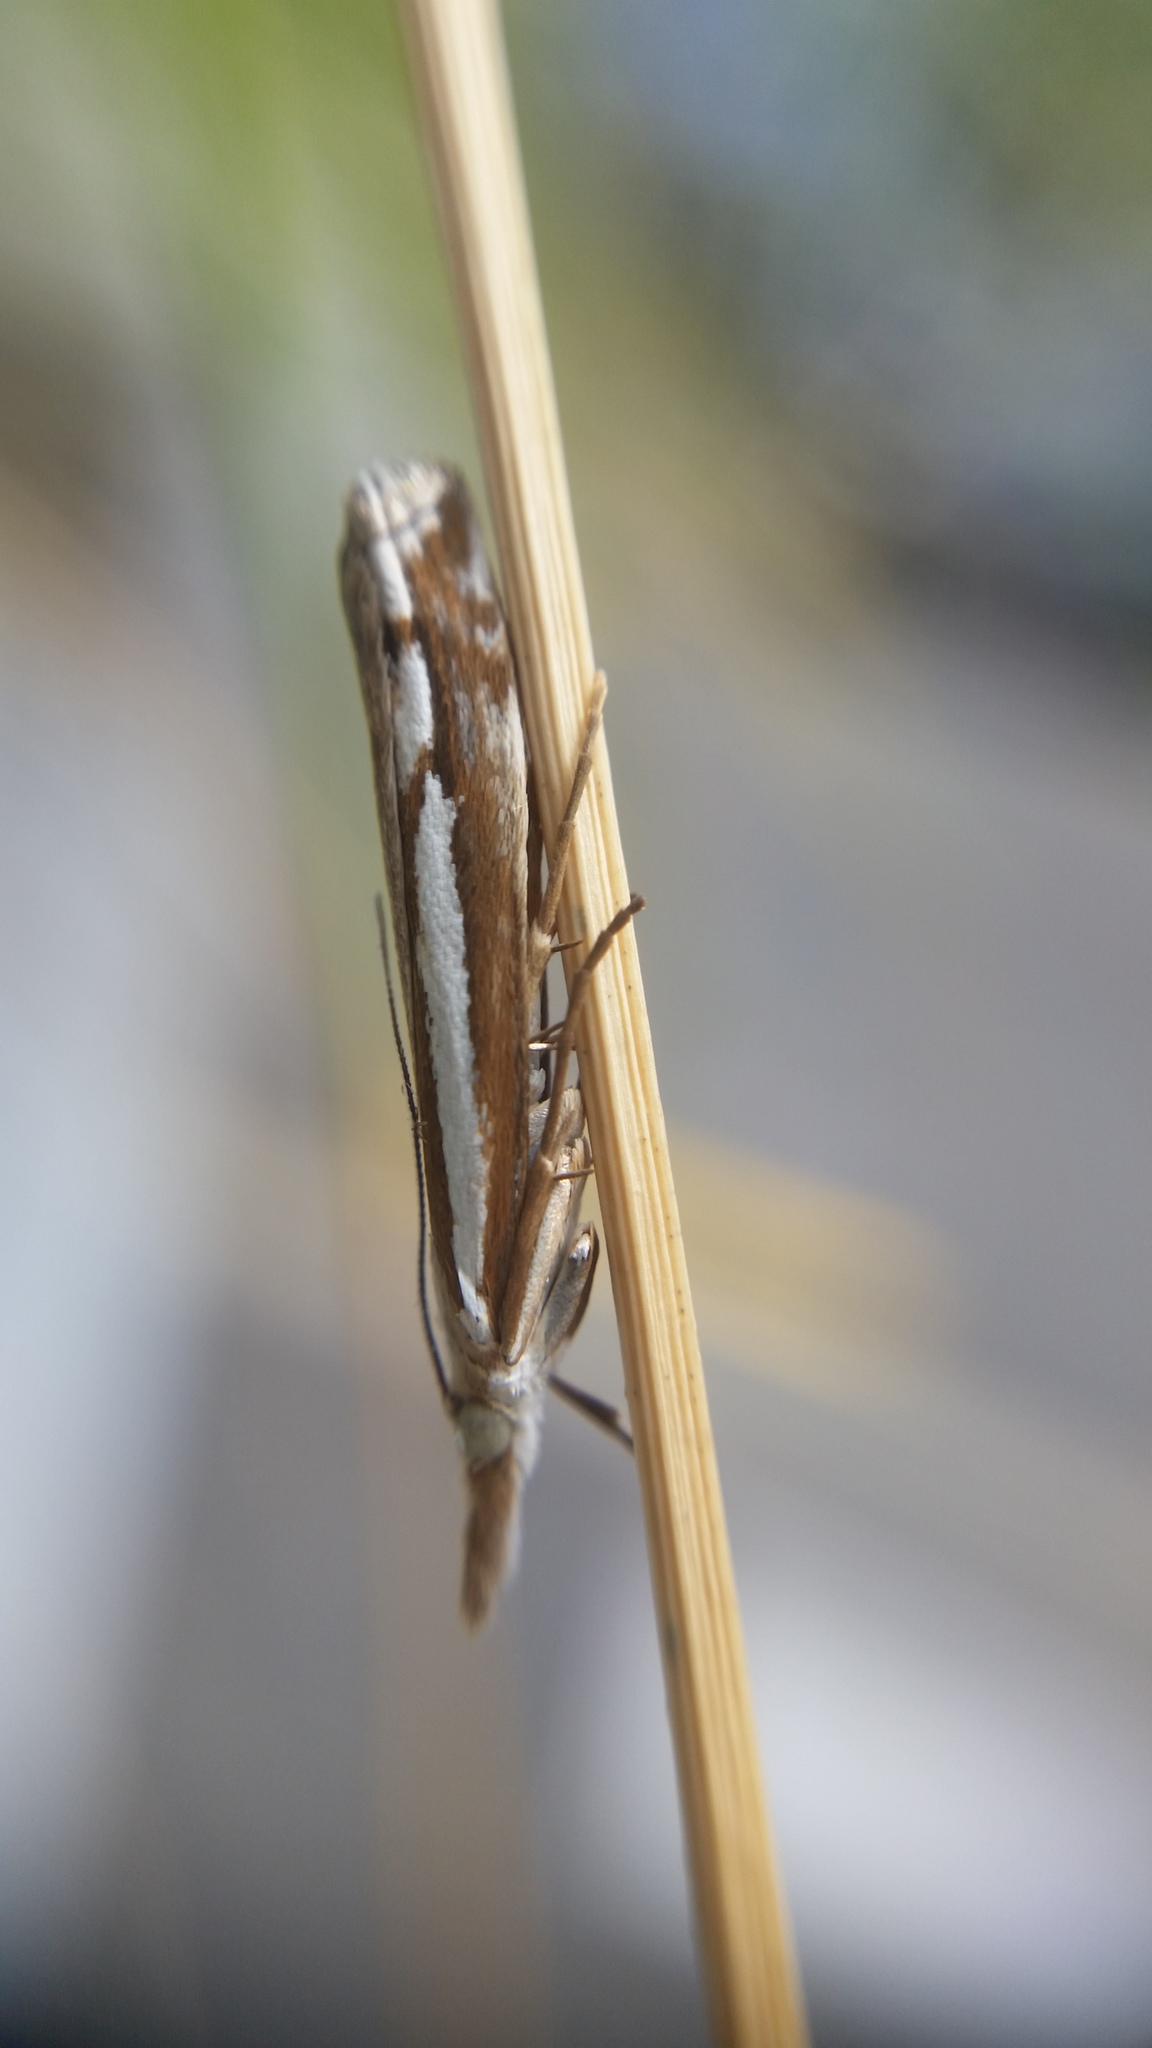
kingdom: Animalia
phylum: Arthropoda
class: Insecta
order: Lepidoptera
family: Crambidae
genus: Orocrambus
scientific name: Orocrambus vittellus
